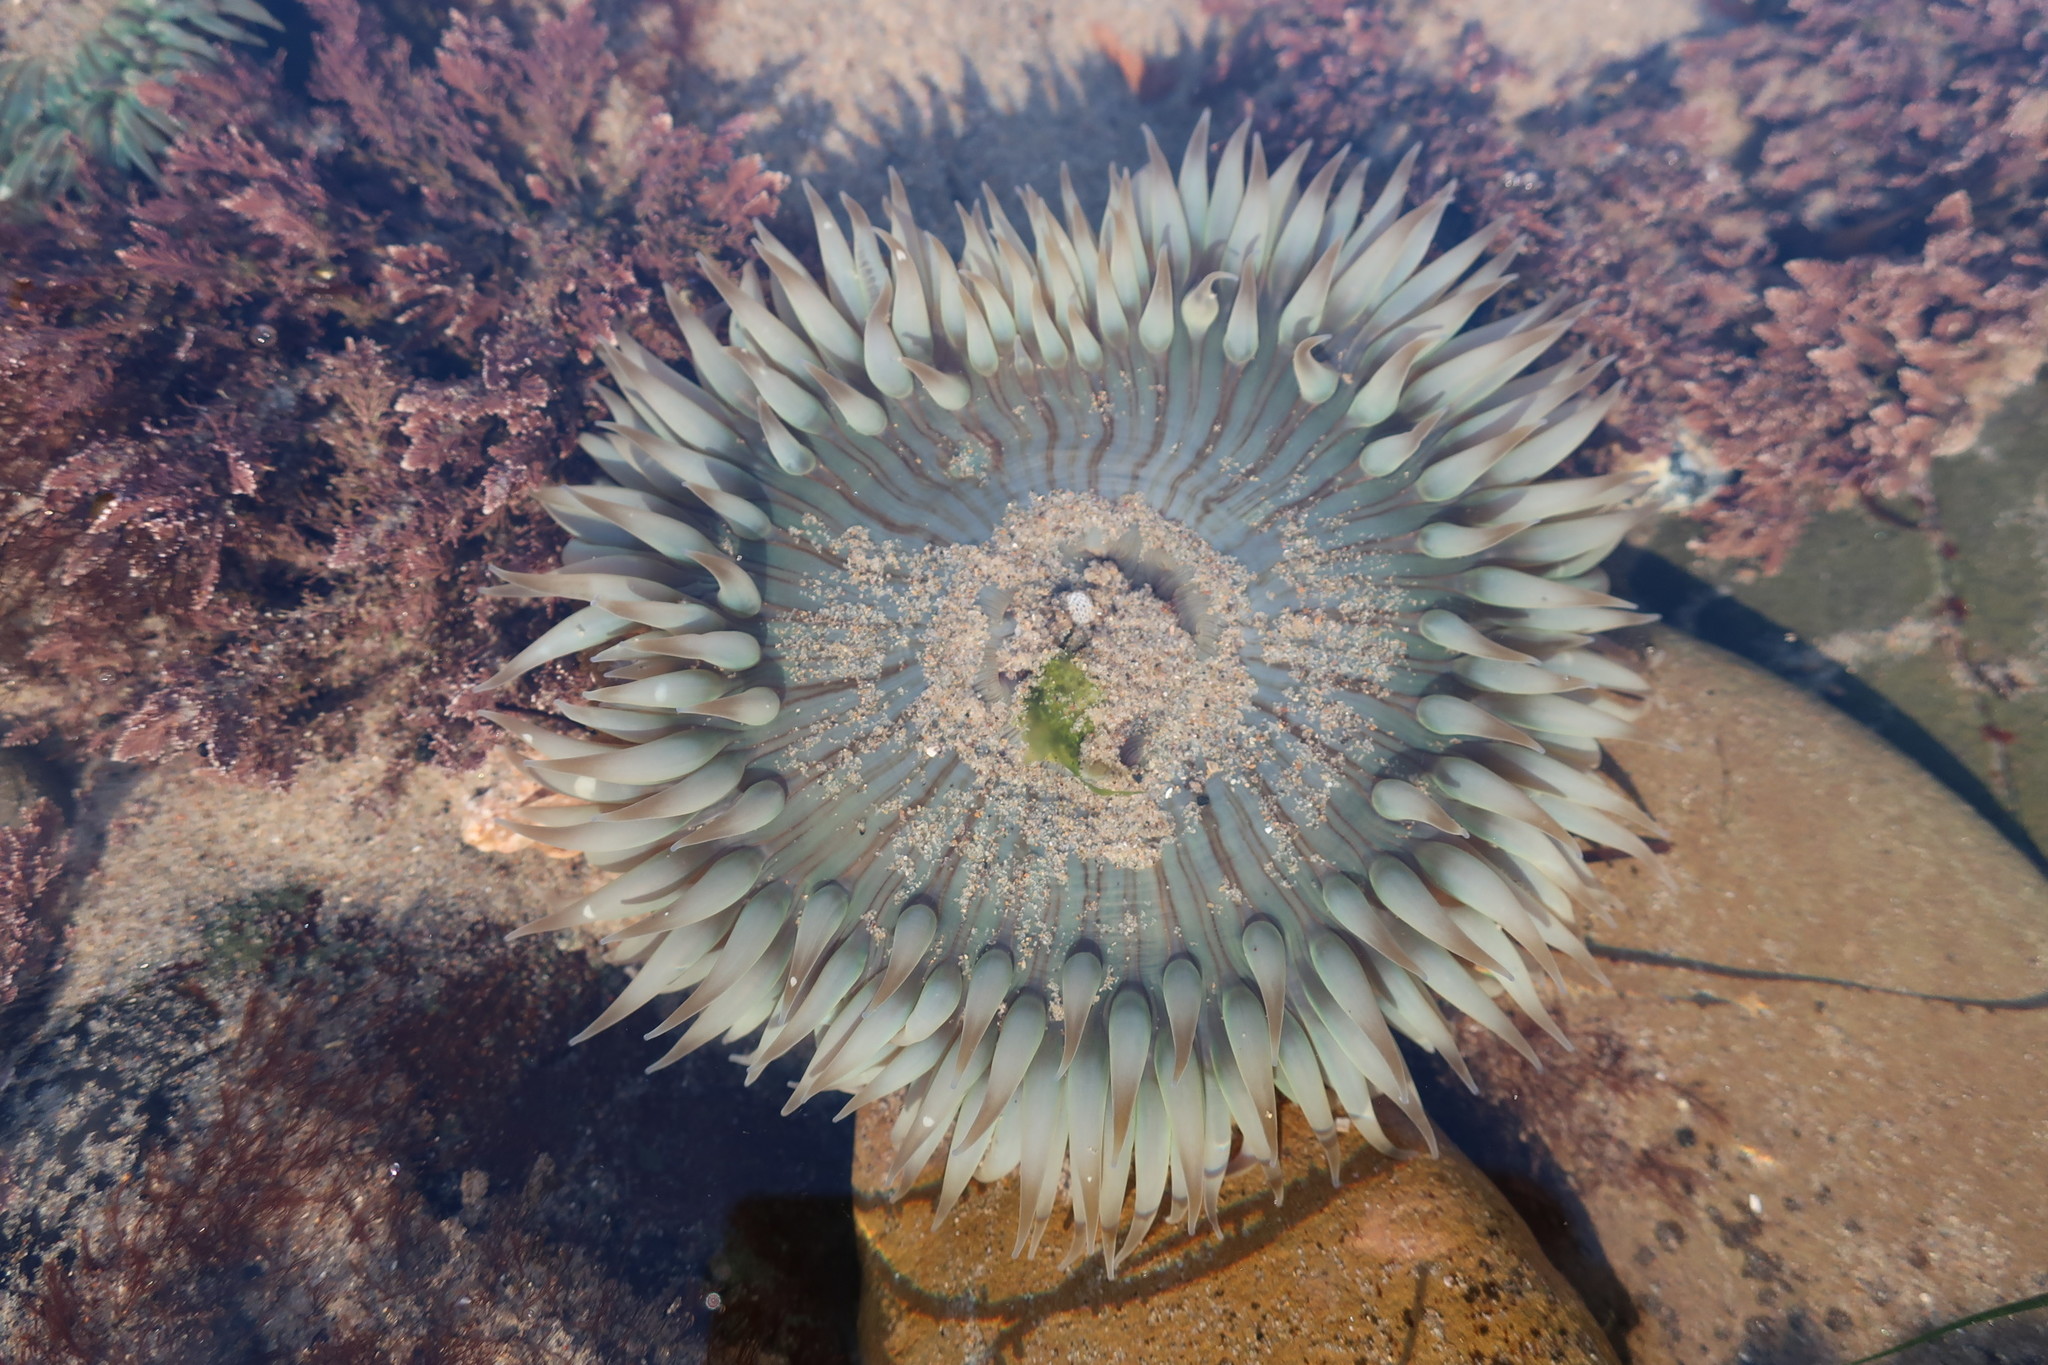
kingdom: Animalia
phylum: Cnidaria
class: Anthozoa
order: Actiniaria
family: Actiniidae
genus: Anthopleura
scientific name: Anthopleura sola
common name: Sun anemone
